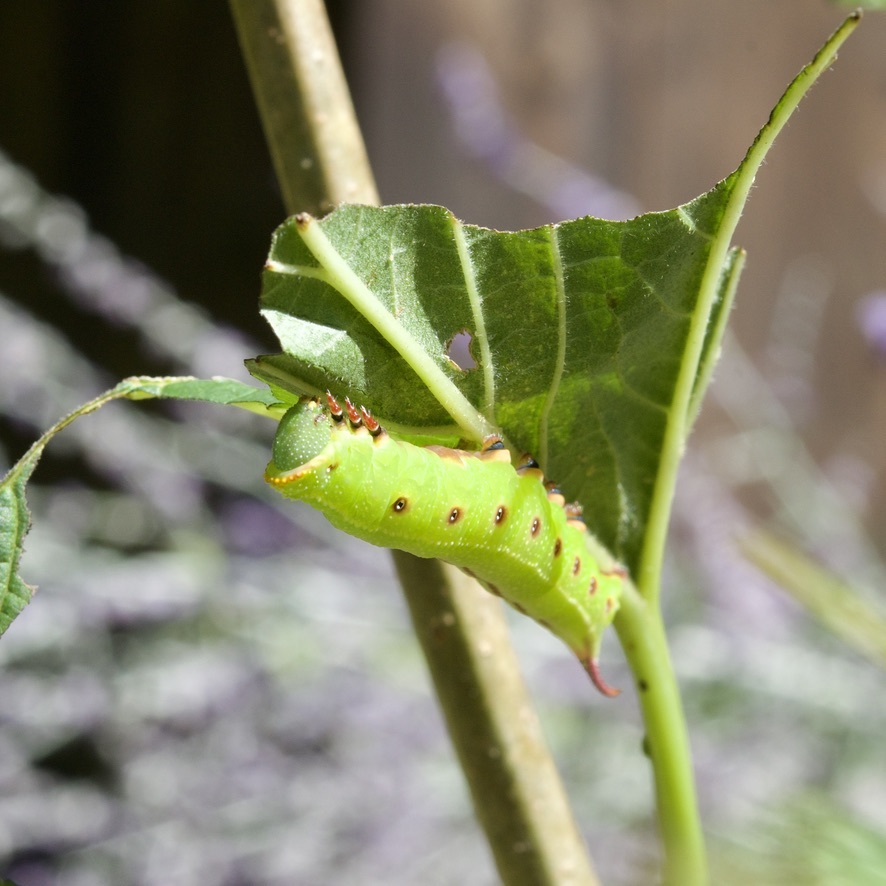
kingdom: Animalia
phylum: Arthropoda
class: Insecta
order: Lepidoptera
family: Sphingidae
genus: Hemaris
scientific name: Hemaris thysbe
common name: Common clear-wing
